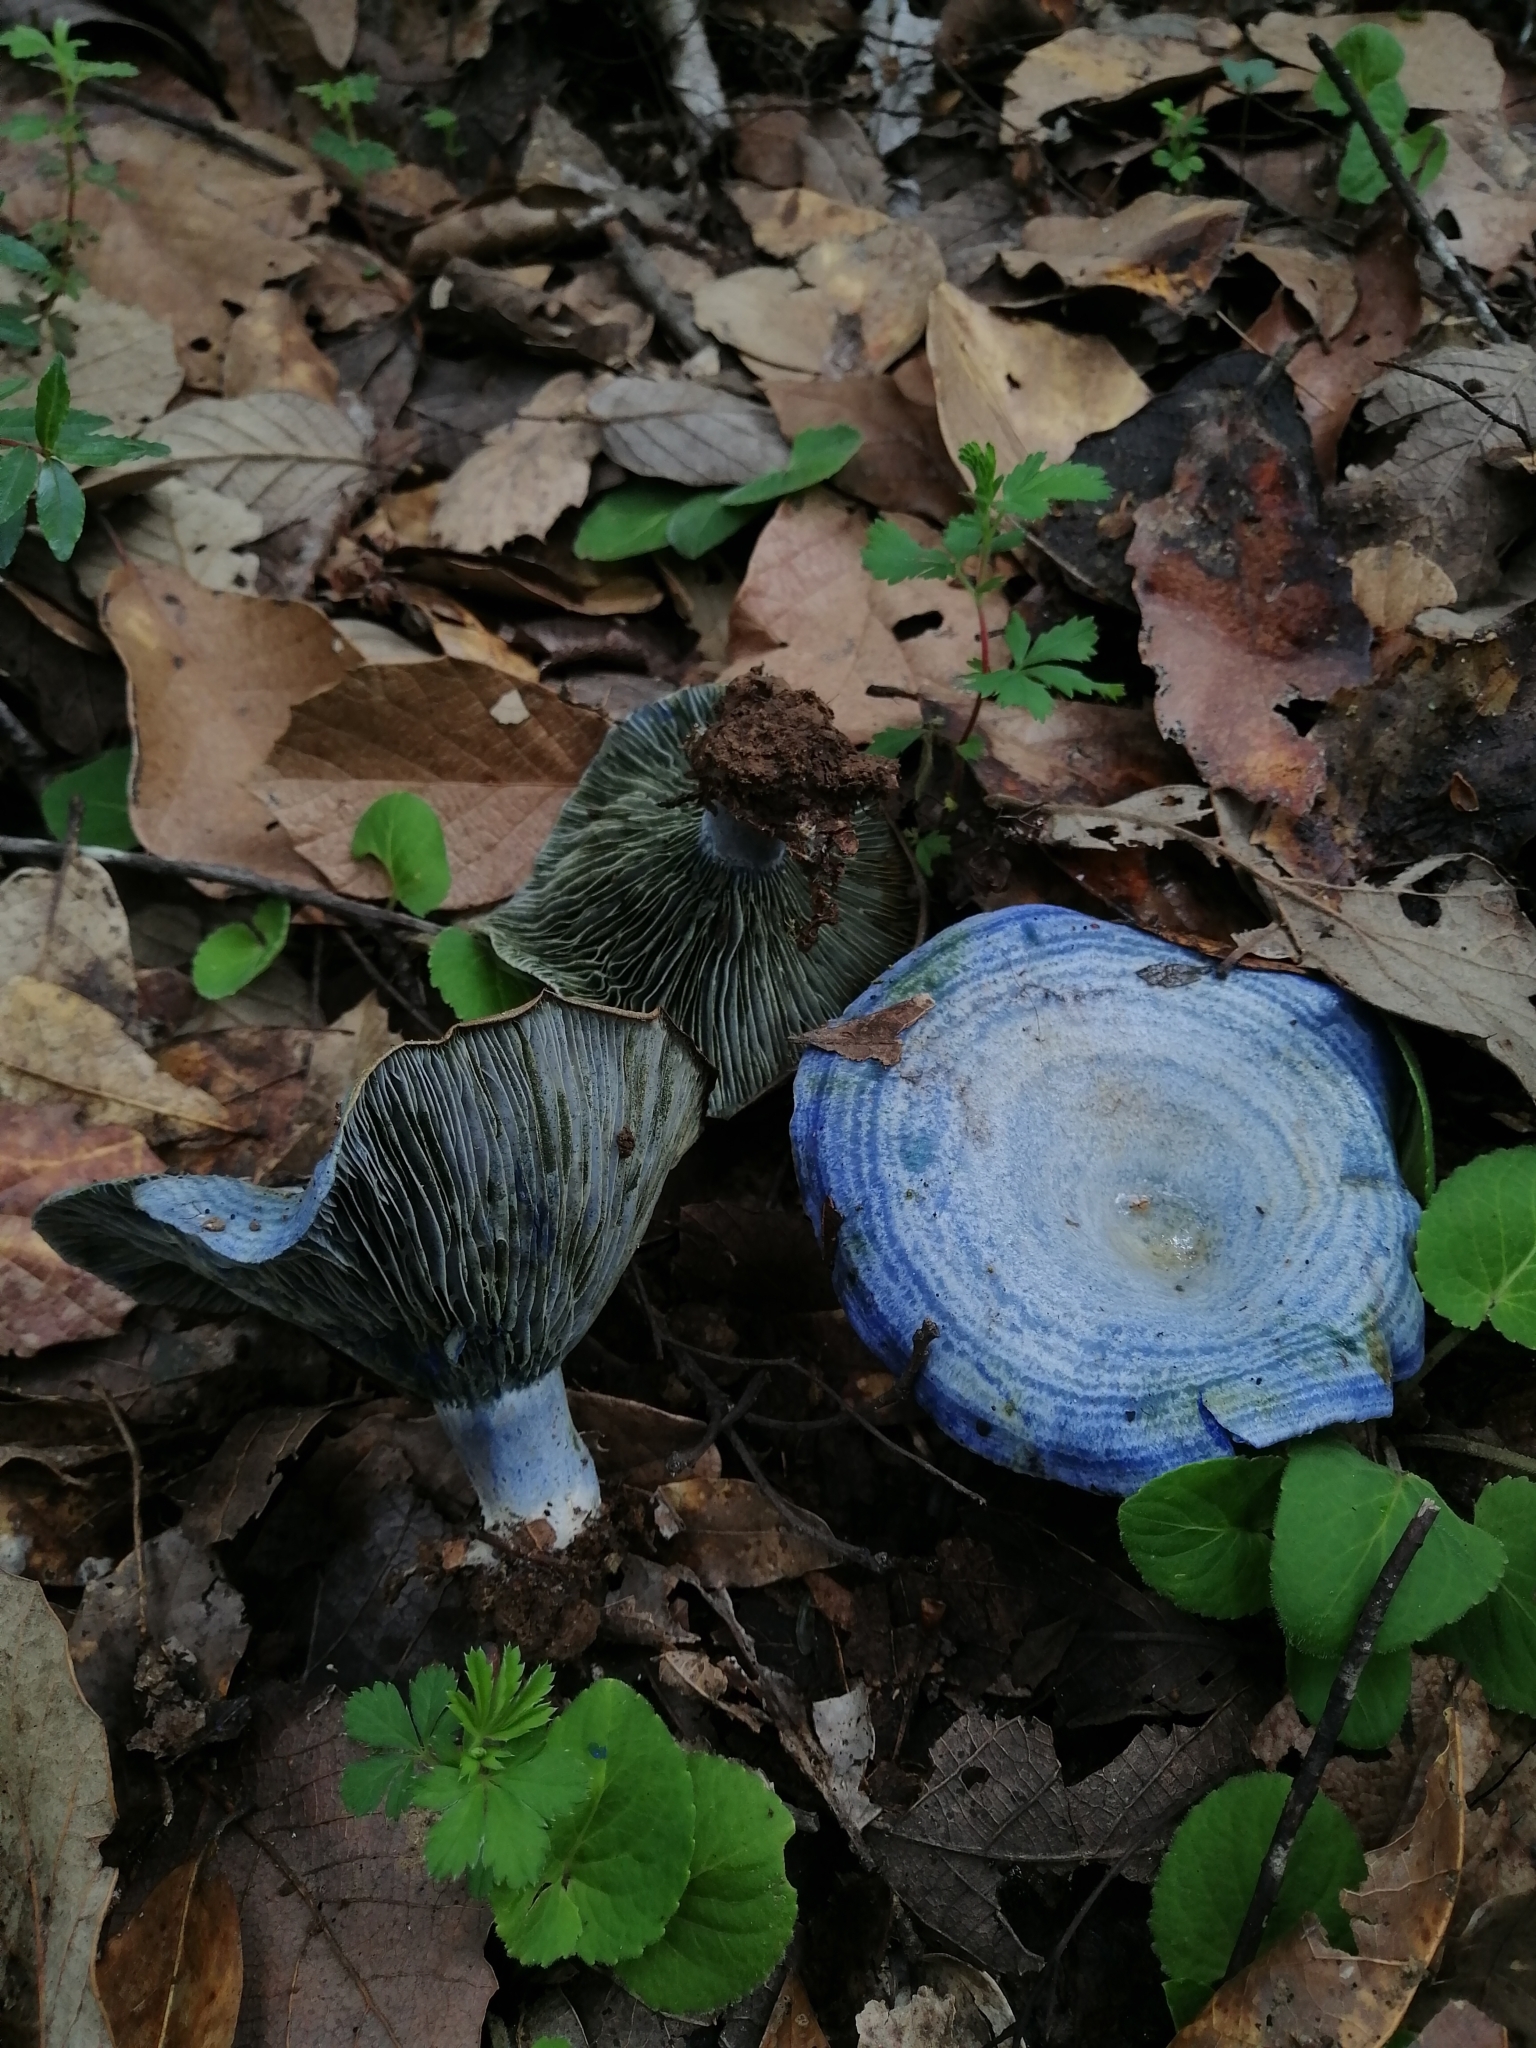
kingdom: Fungi
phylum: Basidiomycota
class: Agaricomycetes
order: Russulales
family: Russulaceae
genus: Lactarius
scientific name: Lactarius indigo
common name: Indigo milk cap
